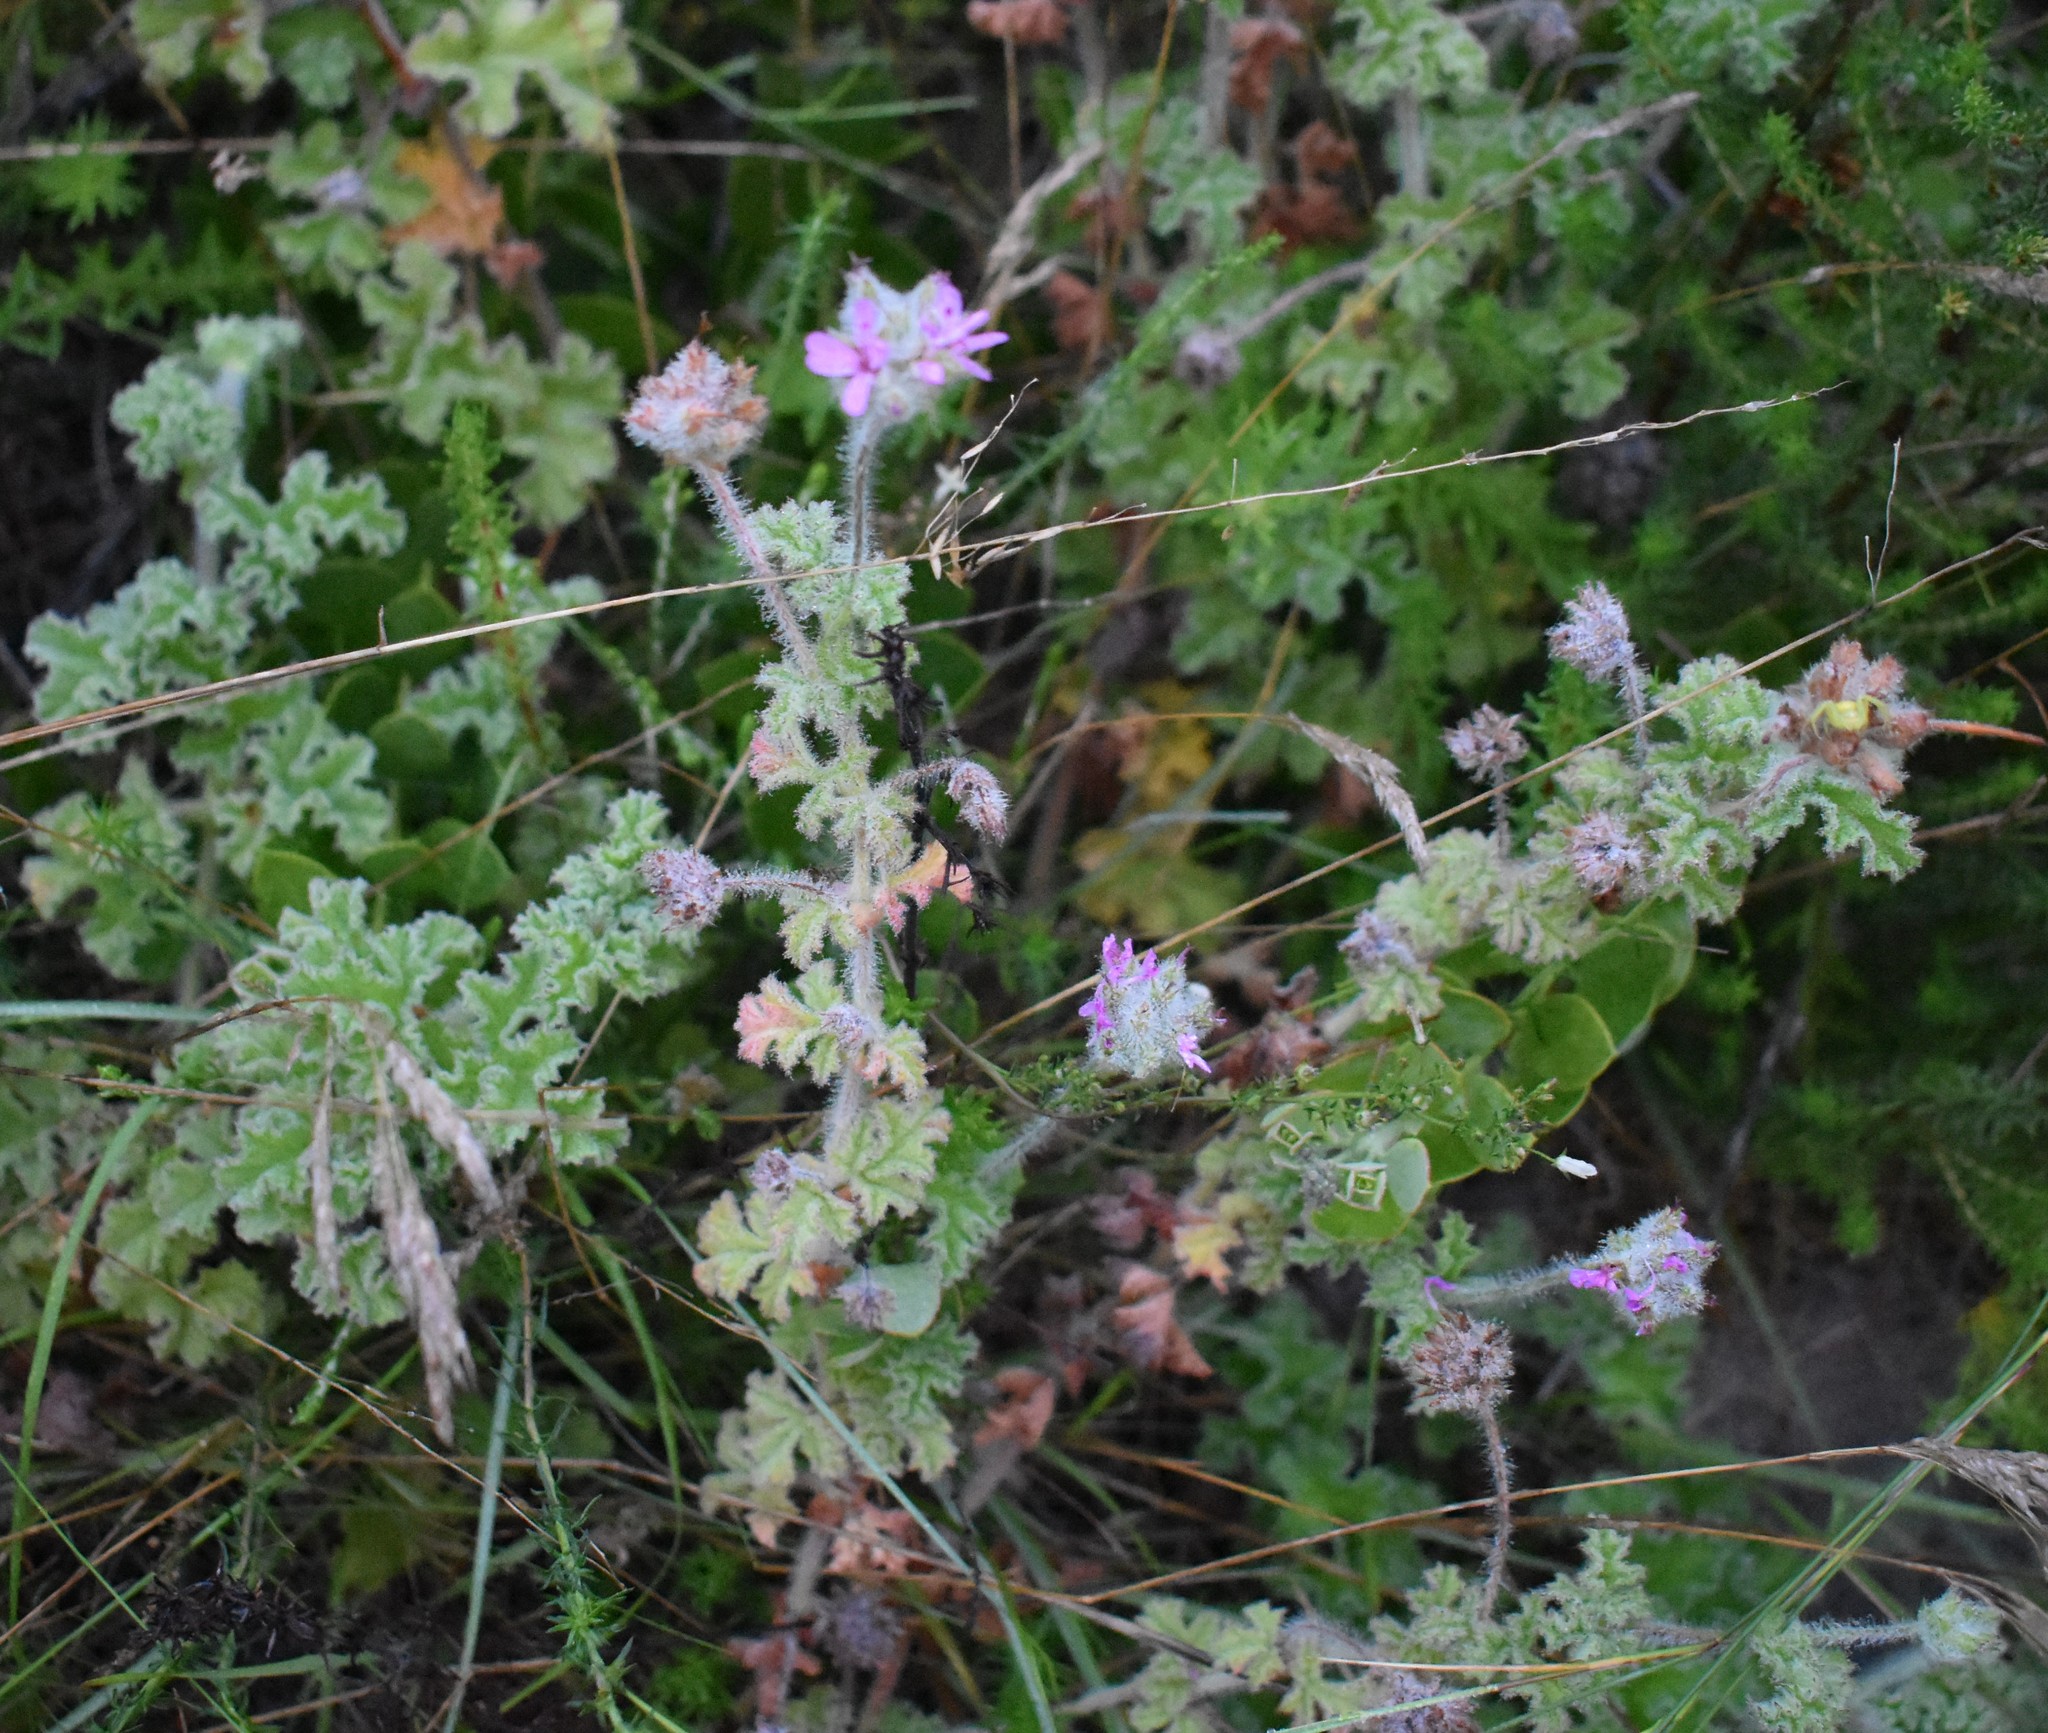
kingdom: Plantae
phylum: Tracheophyta
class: Magnoliopsida
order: Geraniales
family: Geraniaceae
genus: Pelargonium
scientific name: Pelargonium capitatum
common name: Rose scented geranium
